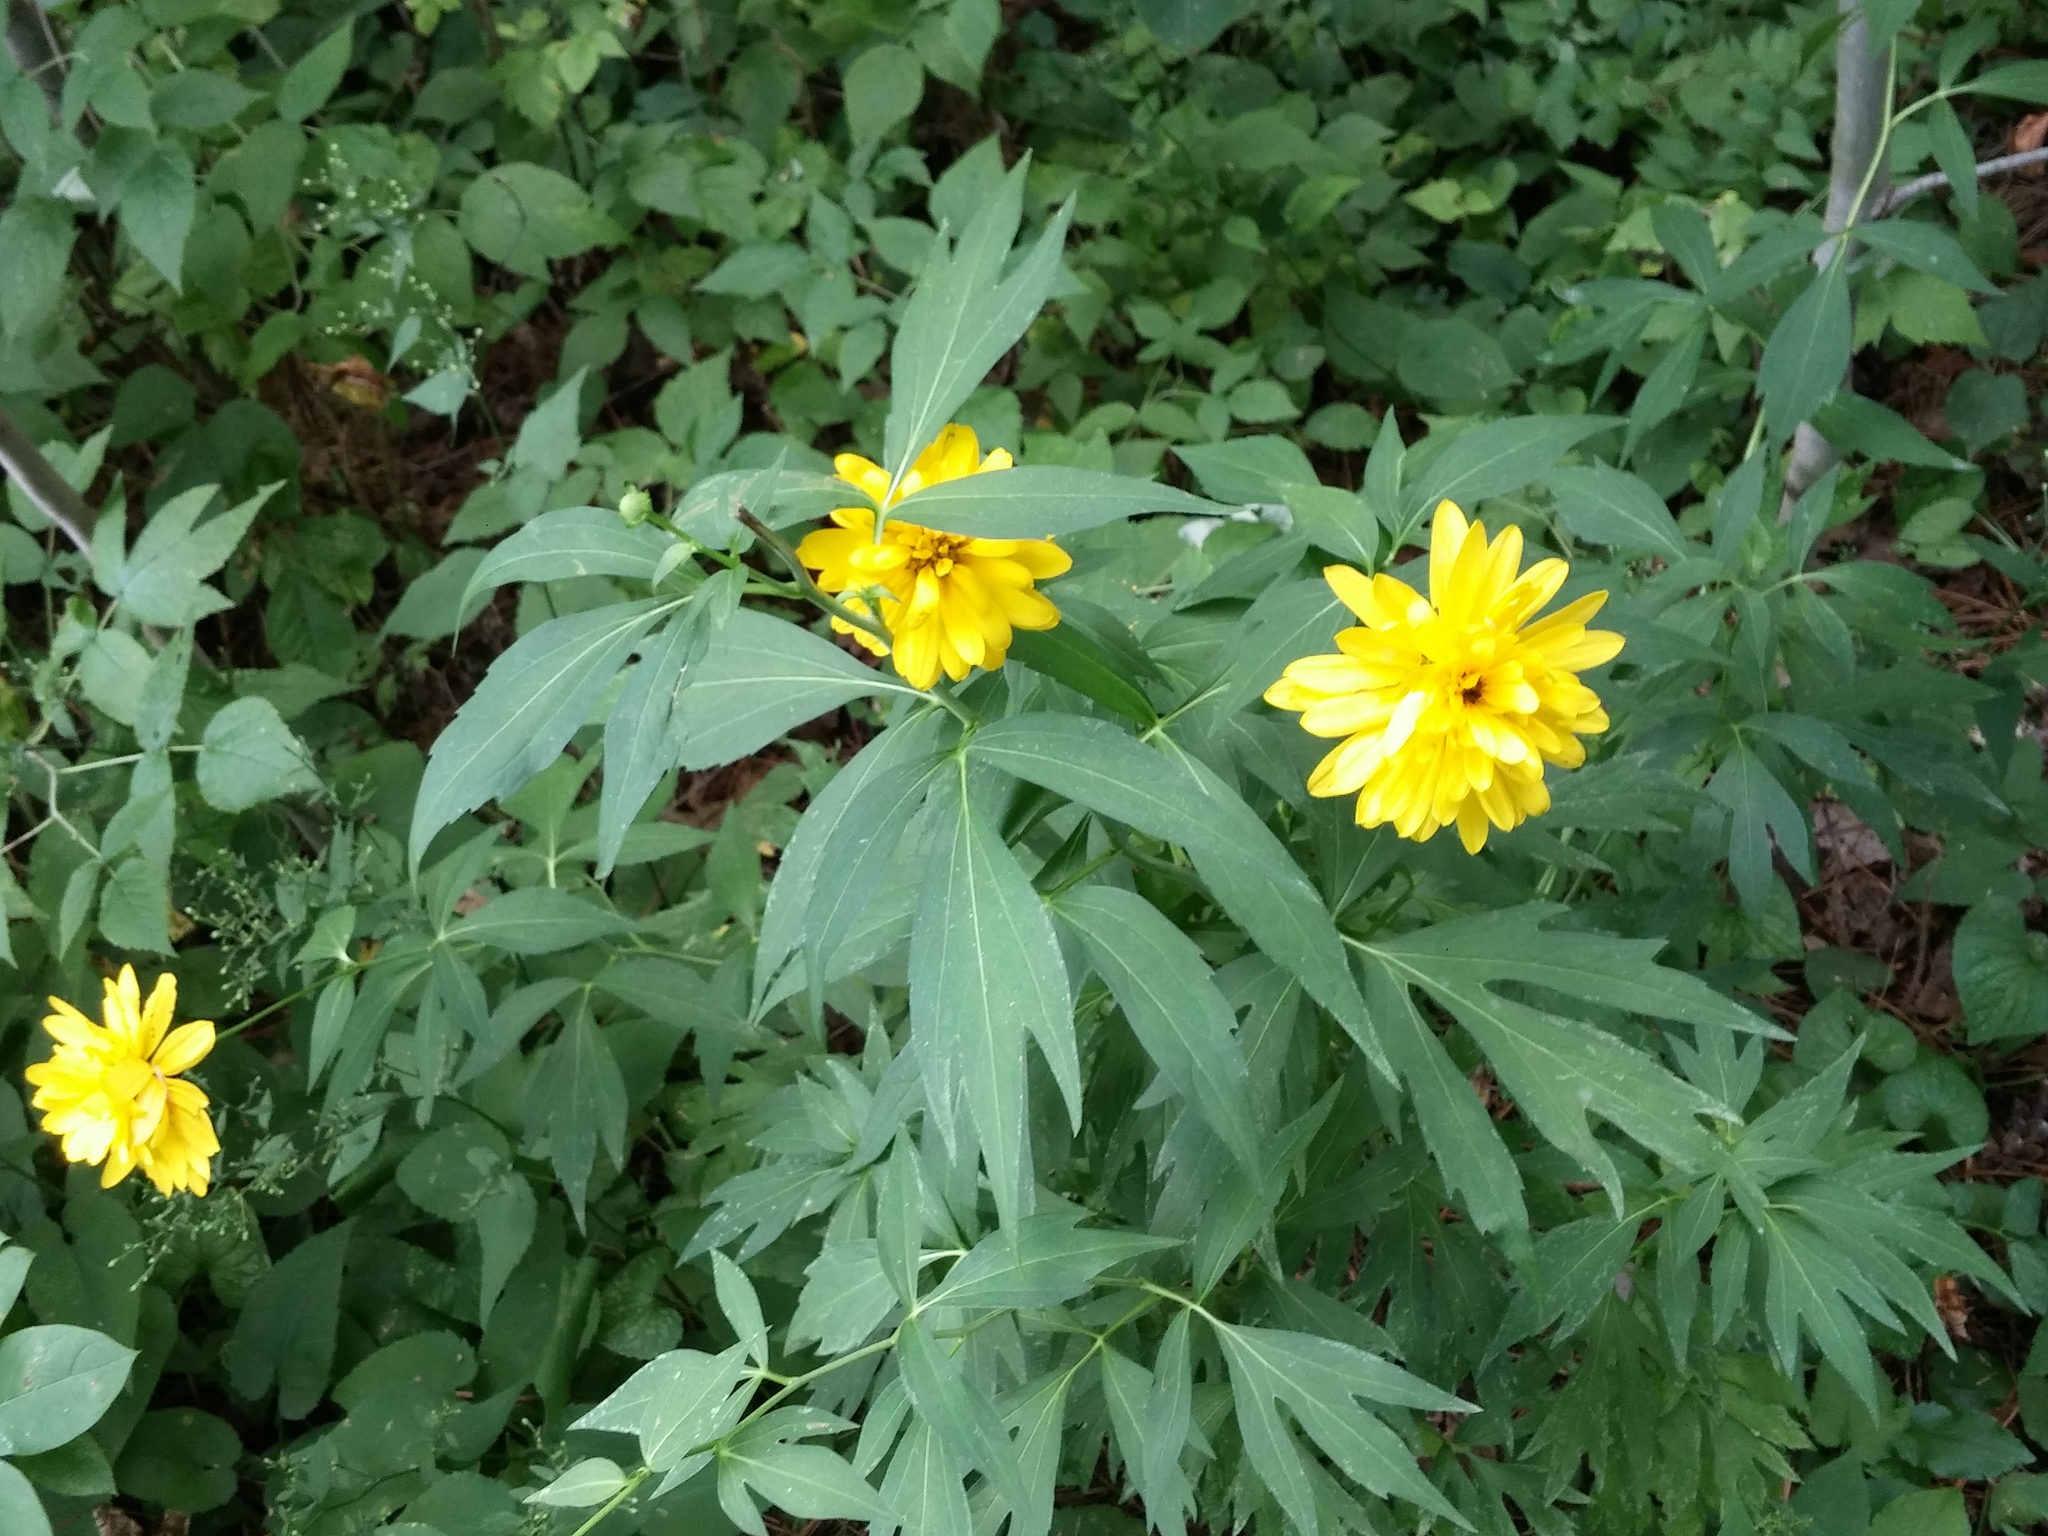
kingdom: Plantae
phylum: Tracheophyta
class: Magnoliopsida
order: Asterales
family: Asteraceae
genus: Rudbeckia
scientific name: Rudbeckia laciniata
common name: Coneflower
